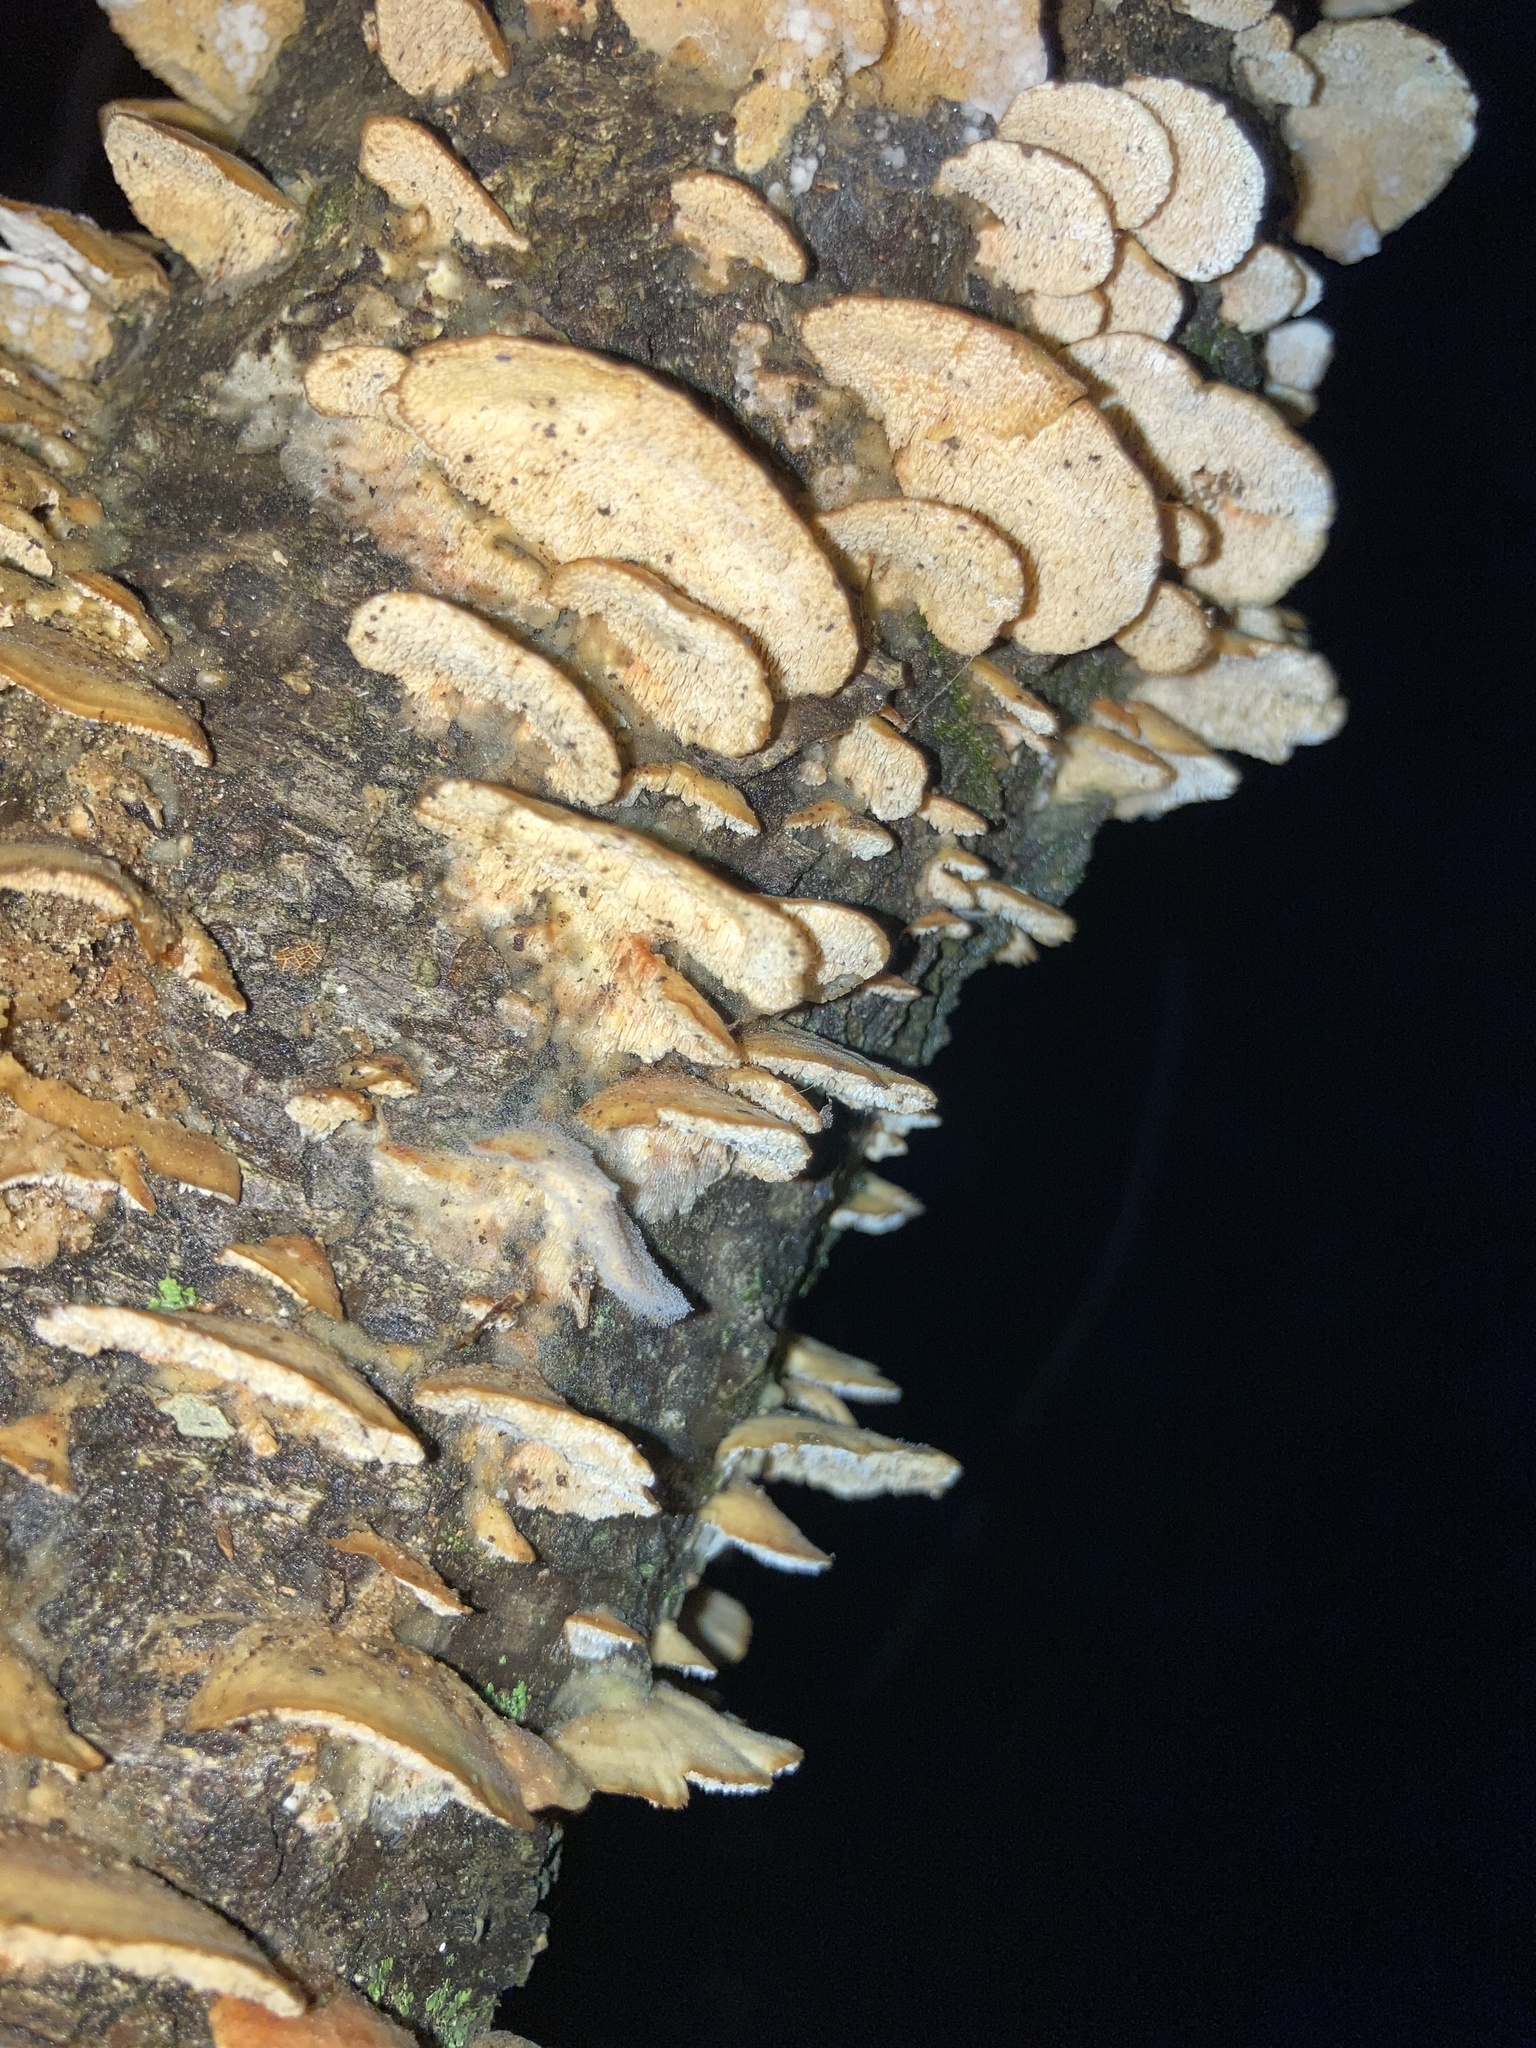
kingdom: Fungi
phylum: Basidiomycota
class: Agaricomycetes
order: Hymenochaetales
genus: Trichaptum
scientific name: Trichaptum biforme
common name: Violet-toothed polypore
